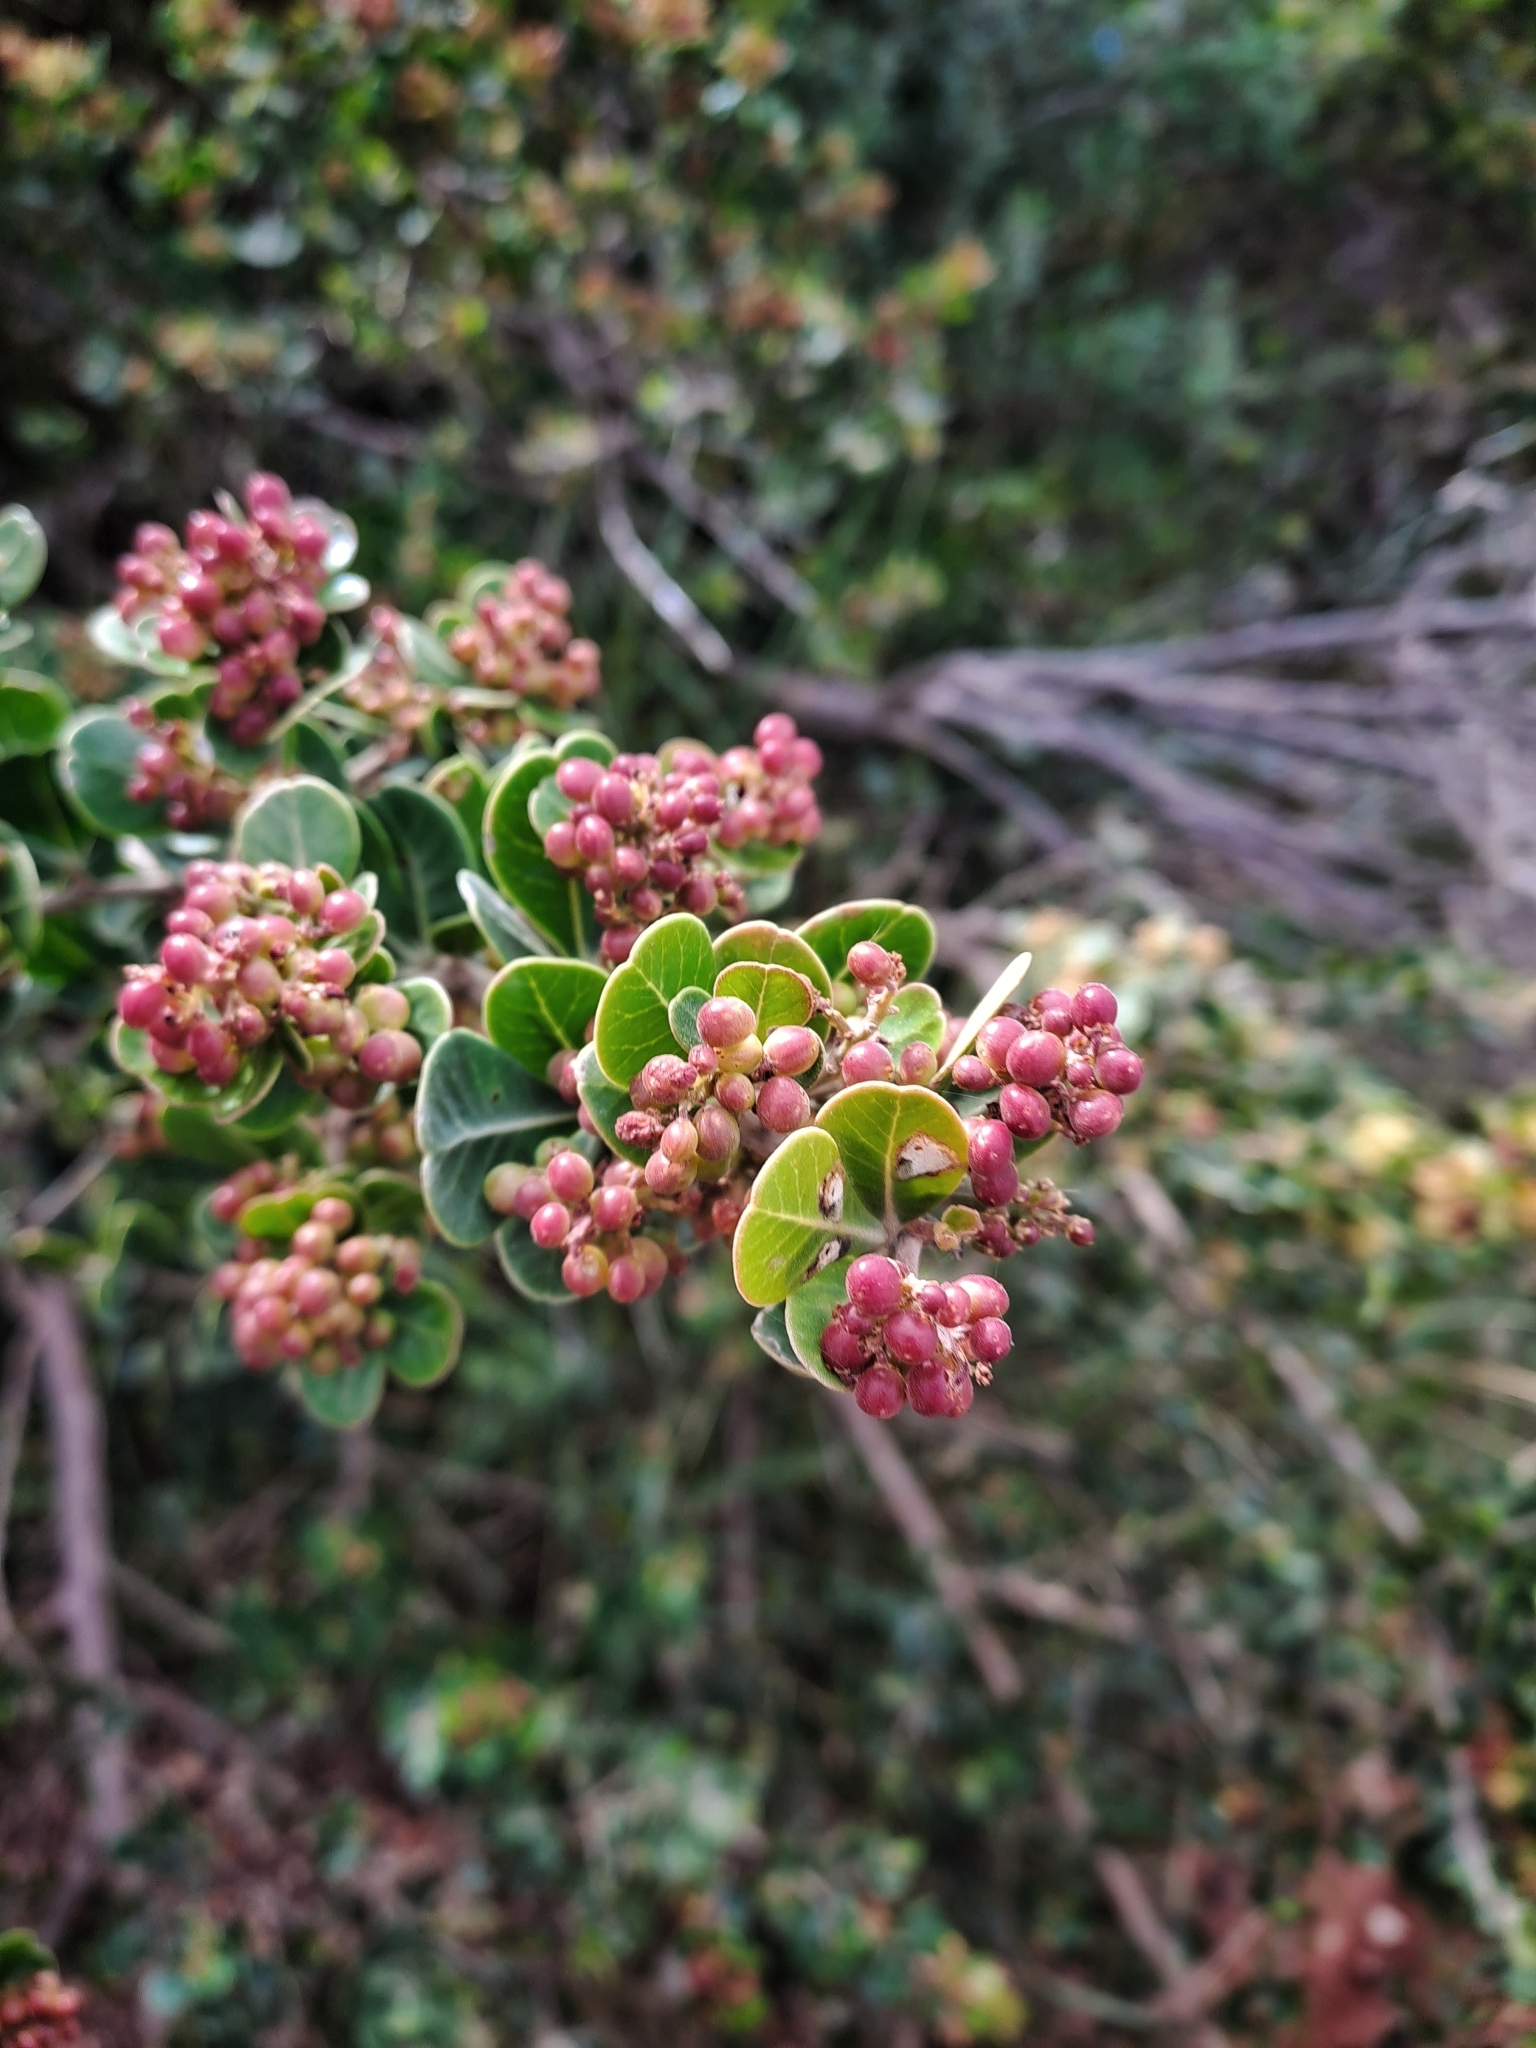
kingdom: Plantae
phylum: Tracheophyta
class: Magnoliopsida
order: Sapindales
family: Anacardiaceae
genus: Searsia
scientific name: Searsia lucida
